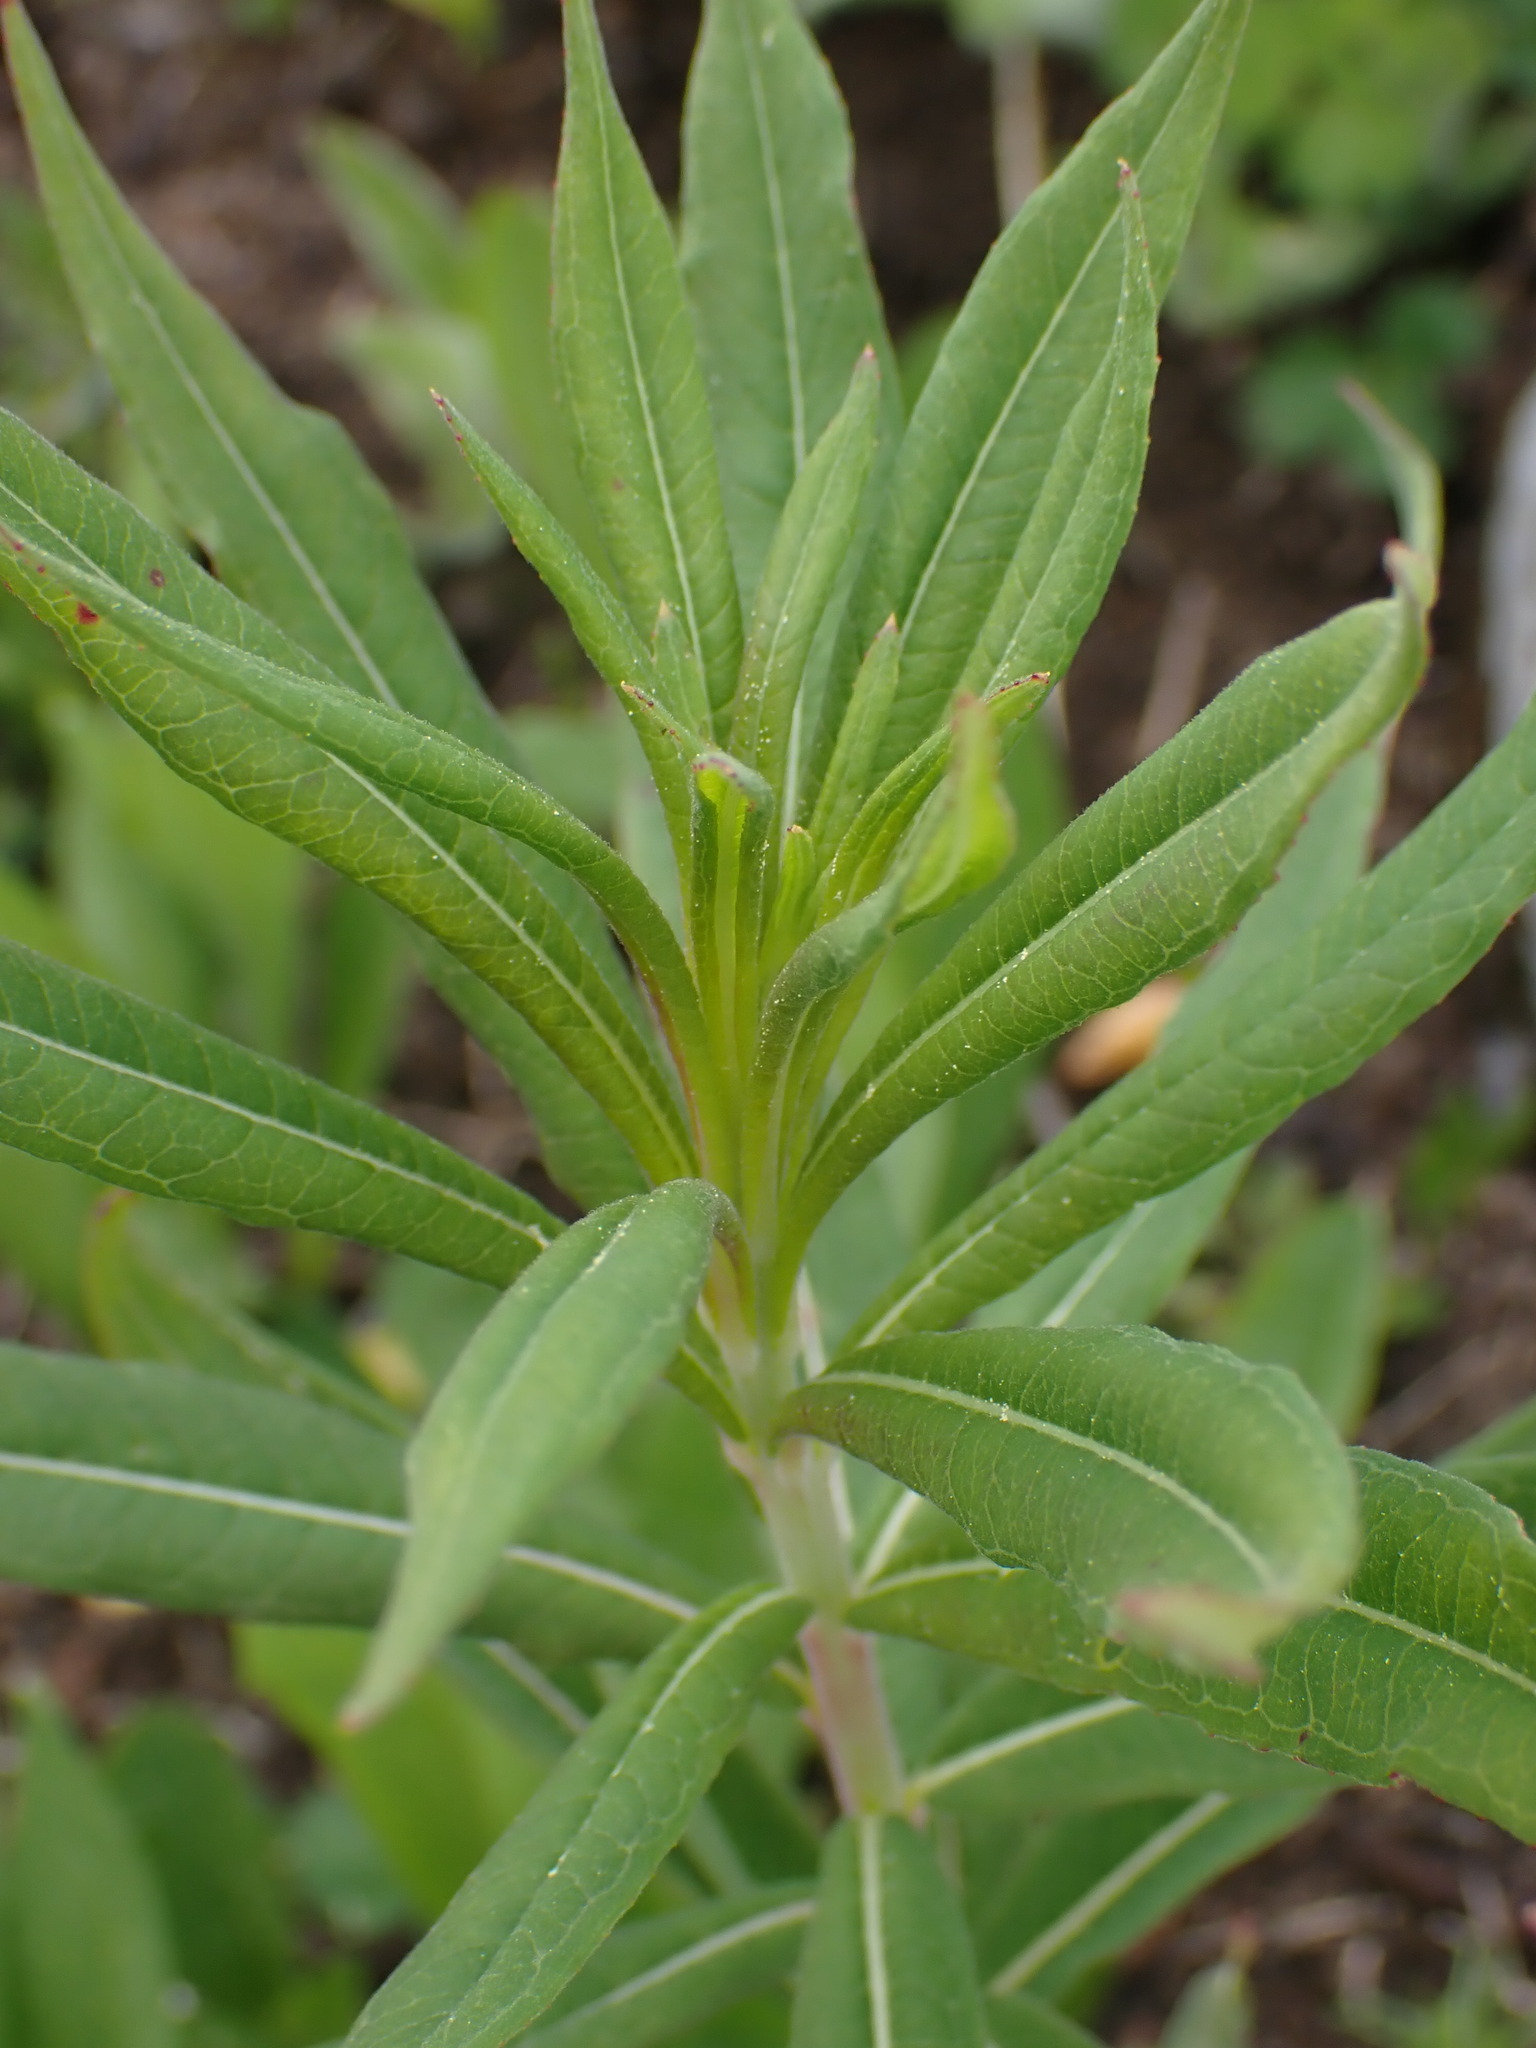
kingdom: Plantae
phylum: Tracheophyta
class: Magnoliopsida
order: Myrtales
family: Onagraceae
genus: Chamaenerion
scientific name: Chamaenerion angustifolium
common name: Fireweed
